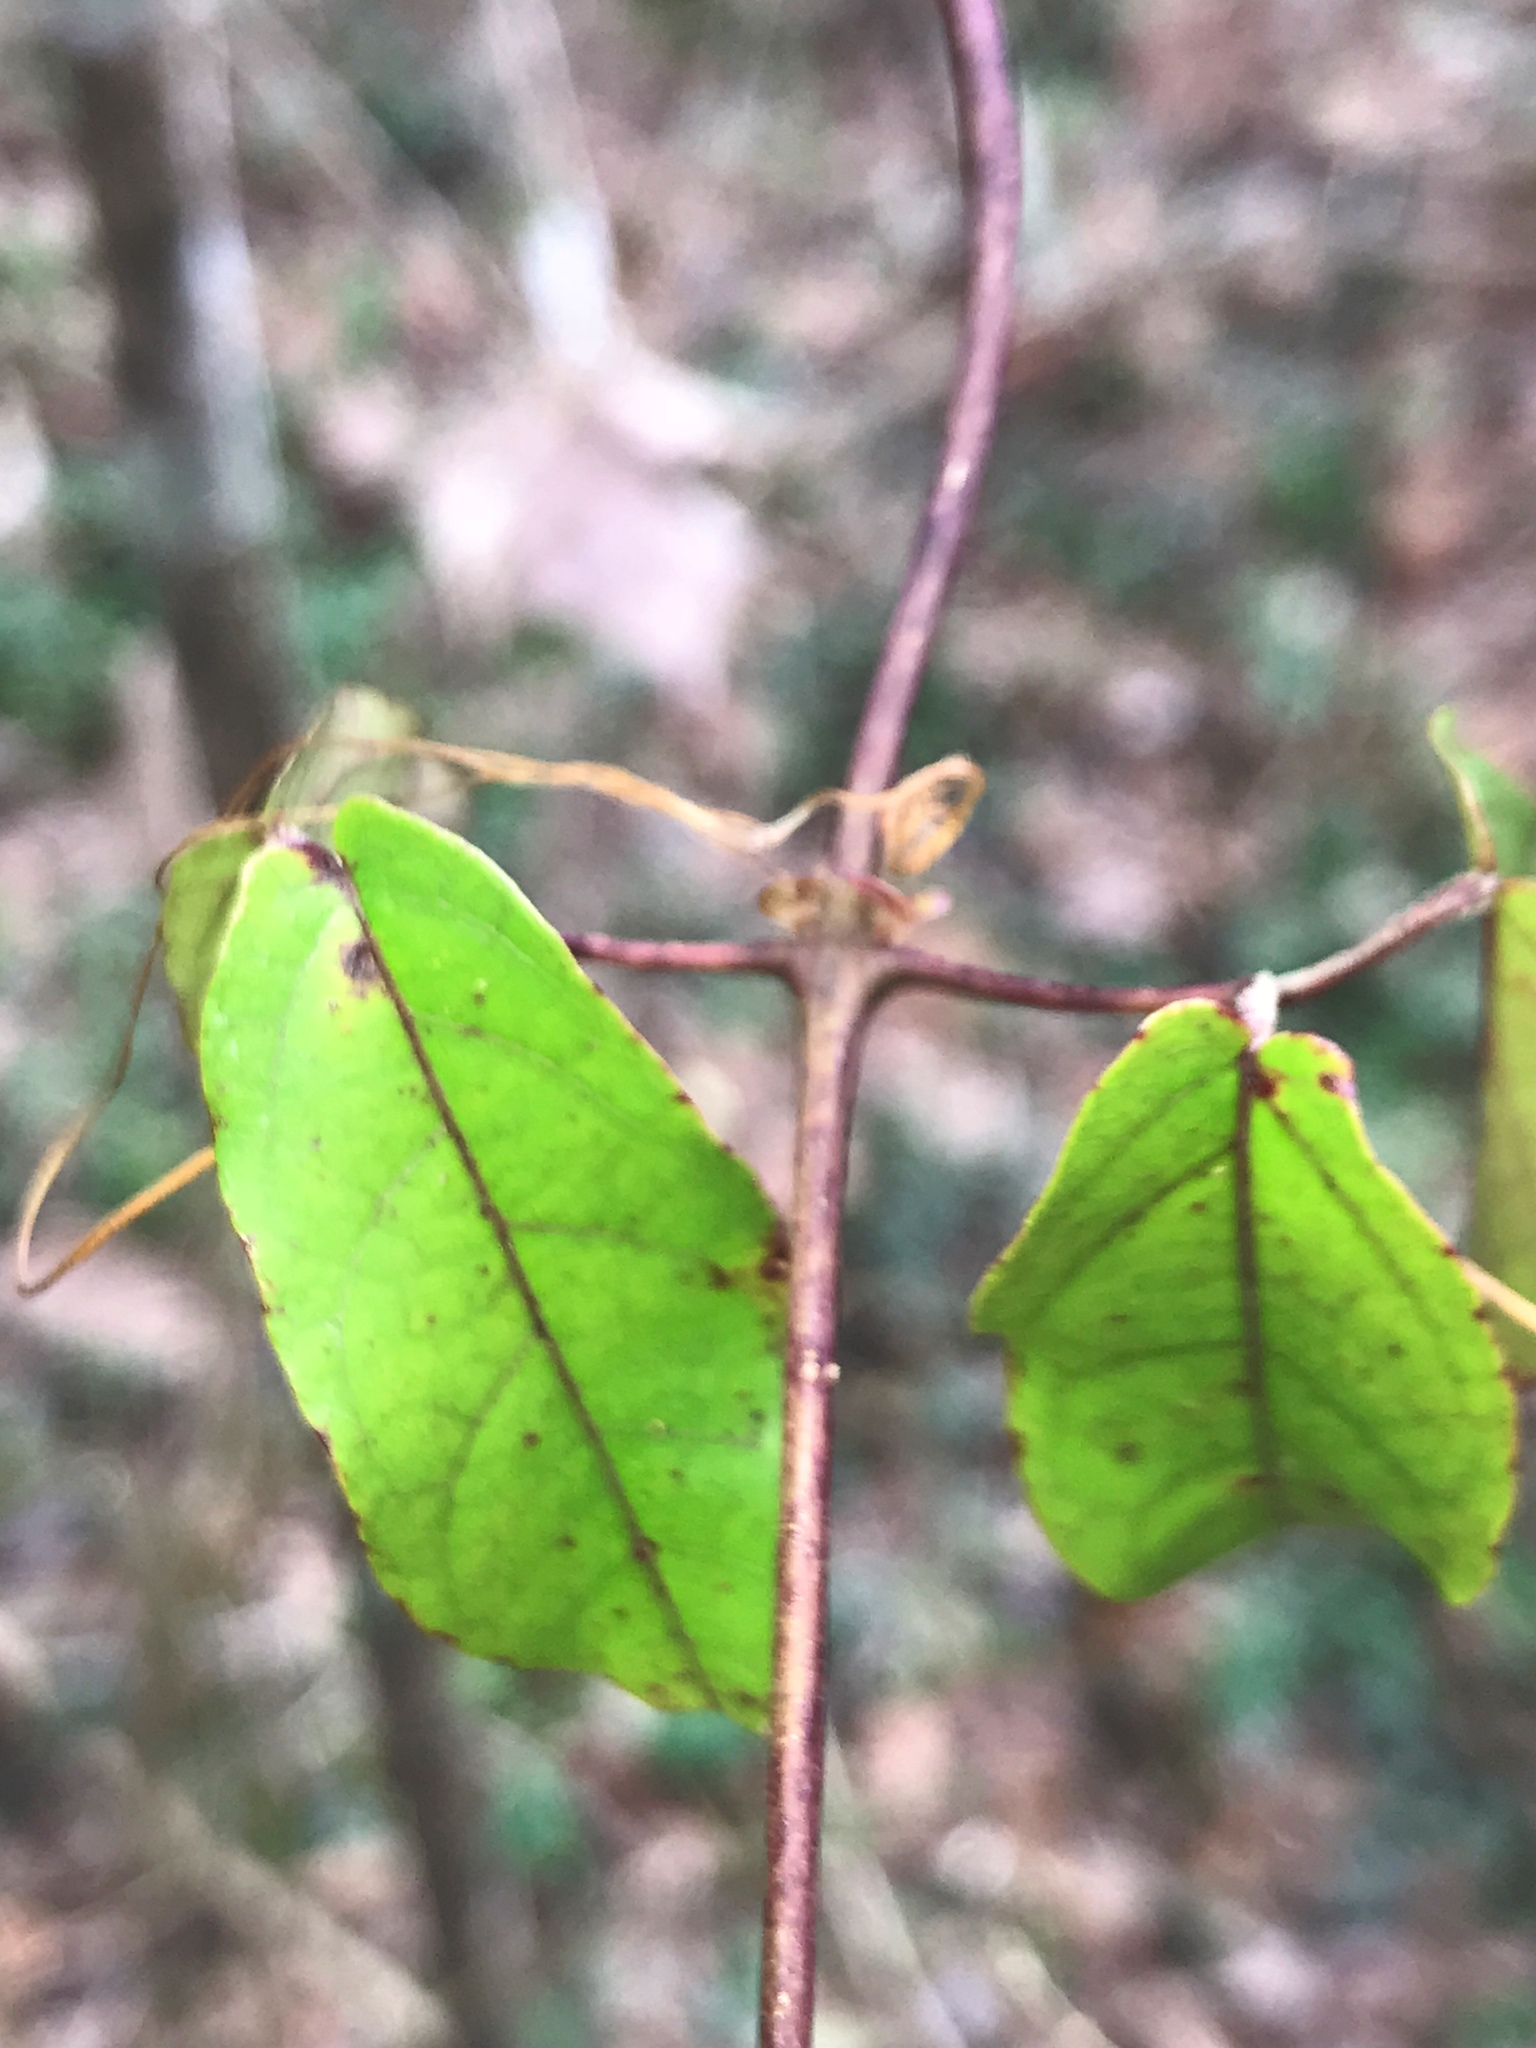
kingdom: Plantae
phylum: Tracheophyta
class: Magnoliopsida
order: Lamiales
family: Bignoniaceae
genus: Bignonia
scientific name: Bignonia capreolata
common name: Crossvine
